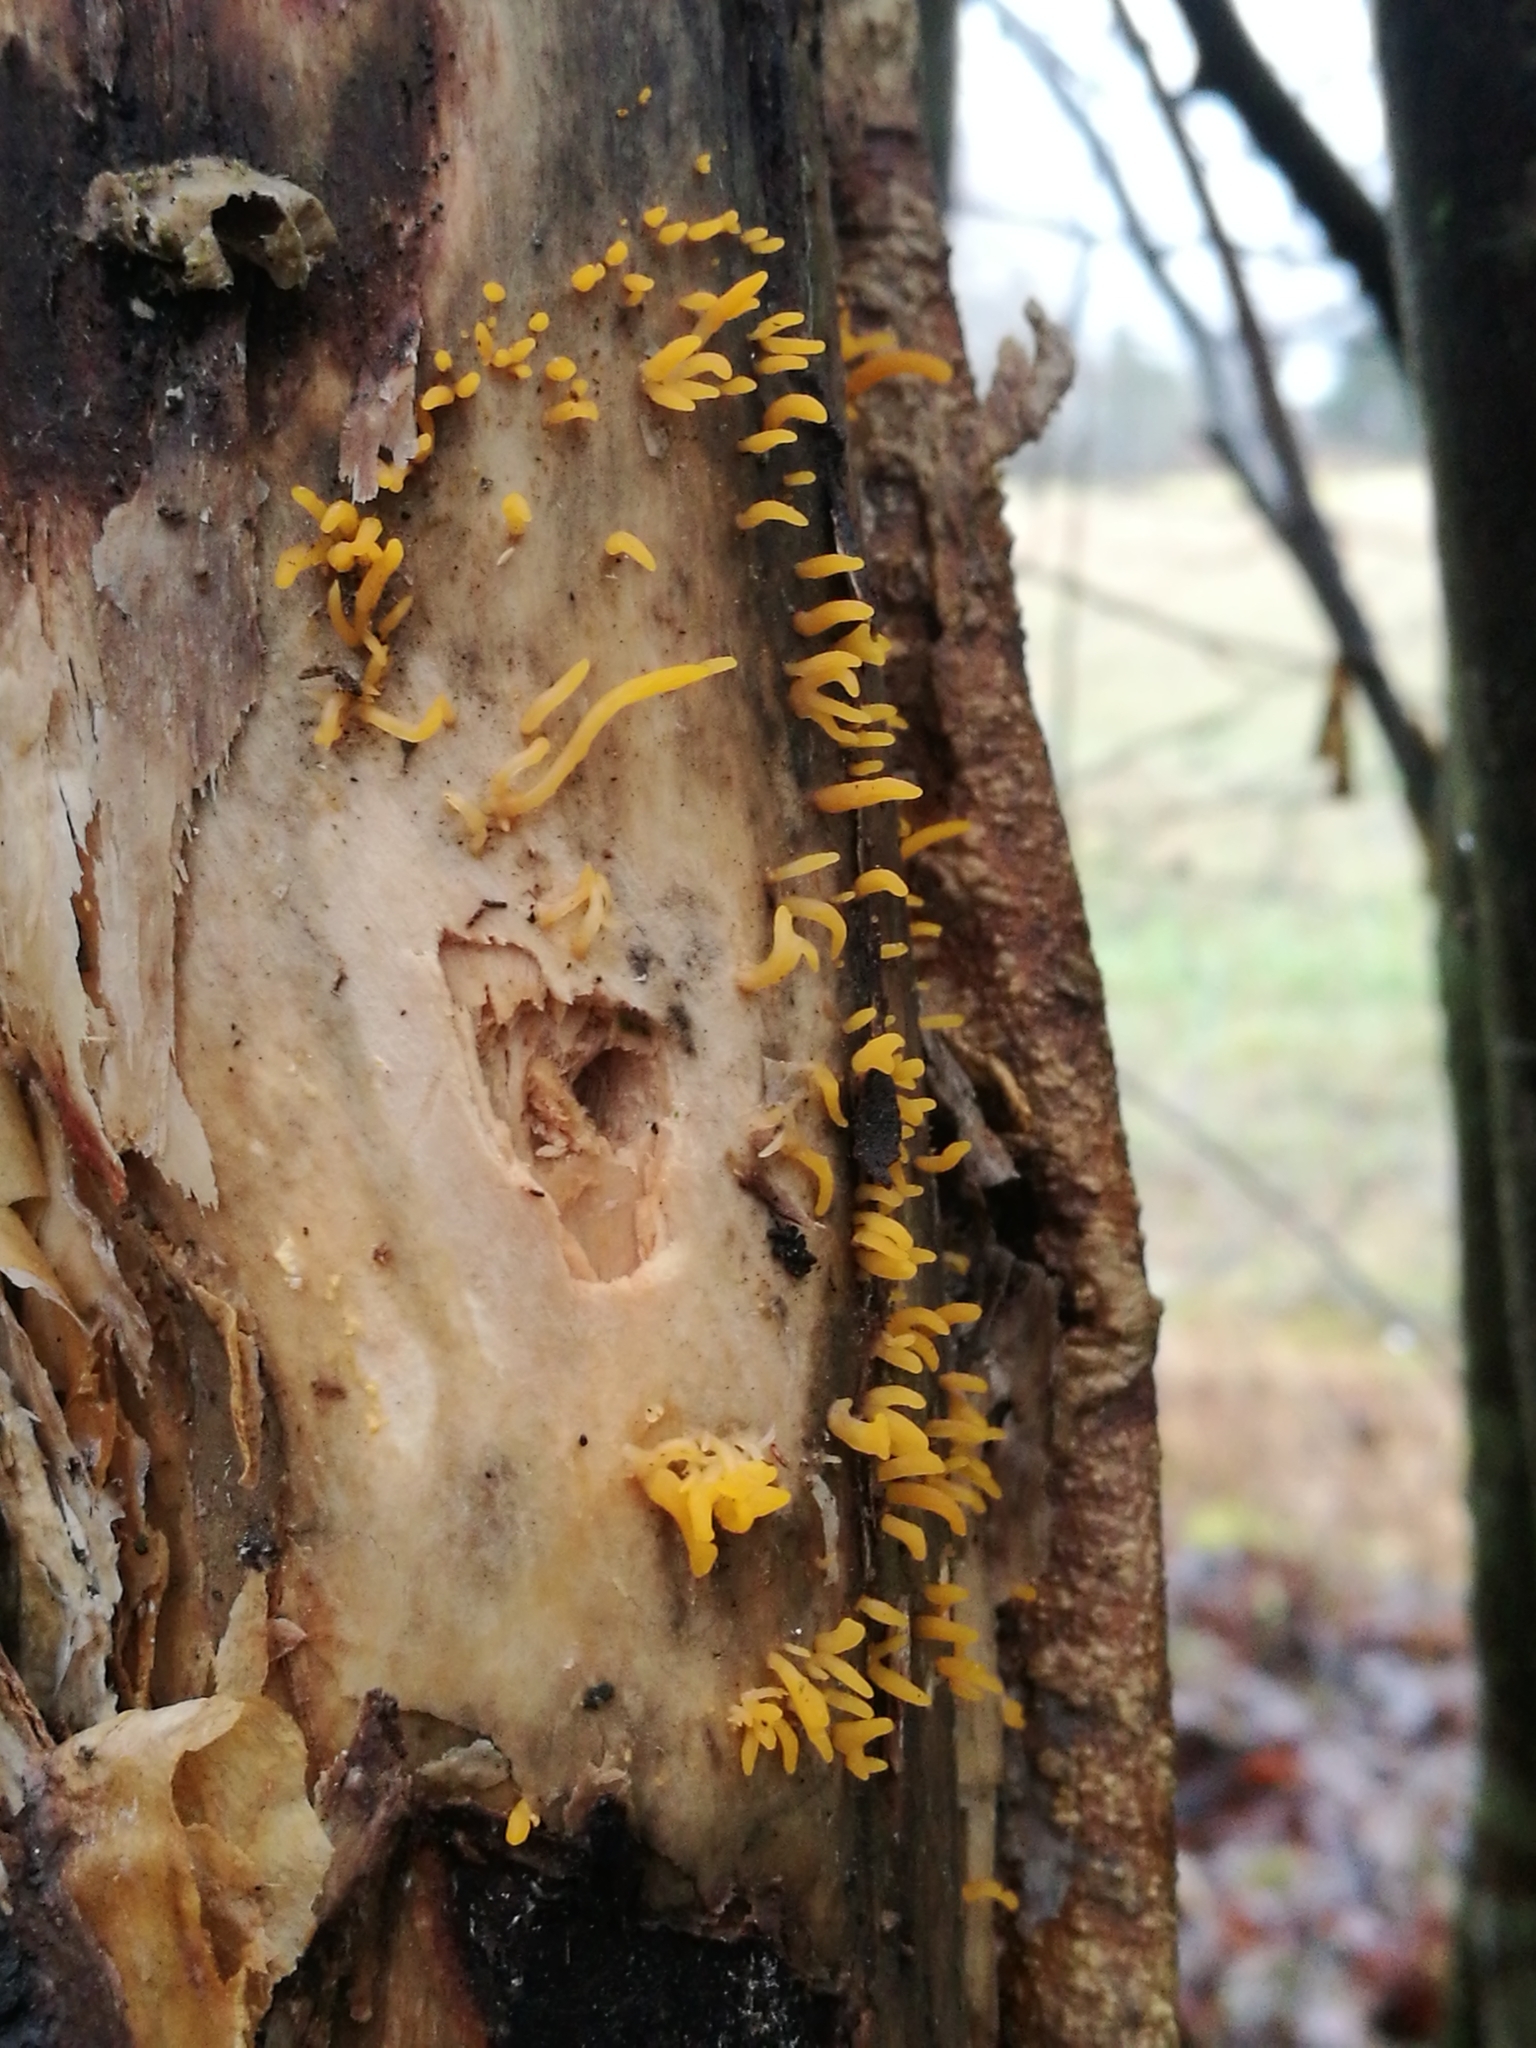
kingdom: Fungi
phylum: Basidiomycota
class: Dacrymycetes
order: Dacrymycetales
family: Dacrymycetaceae
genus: Calocera
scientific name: Calocera cornea
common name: Small stagshorn
